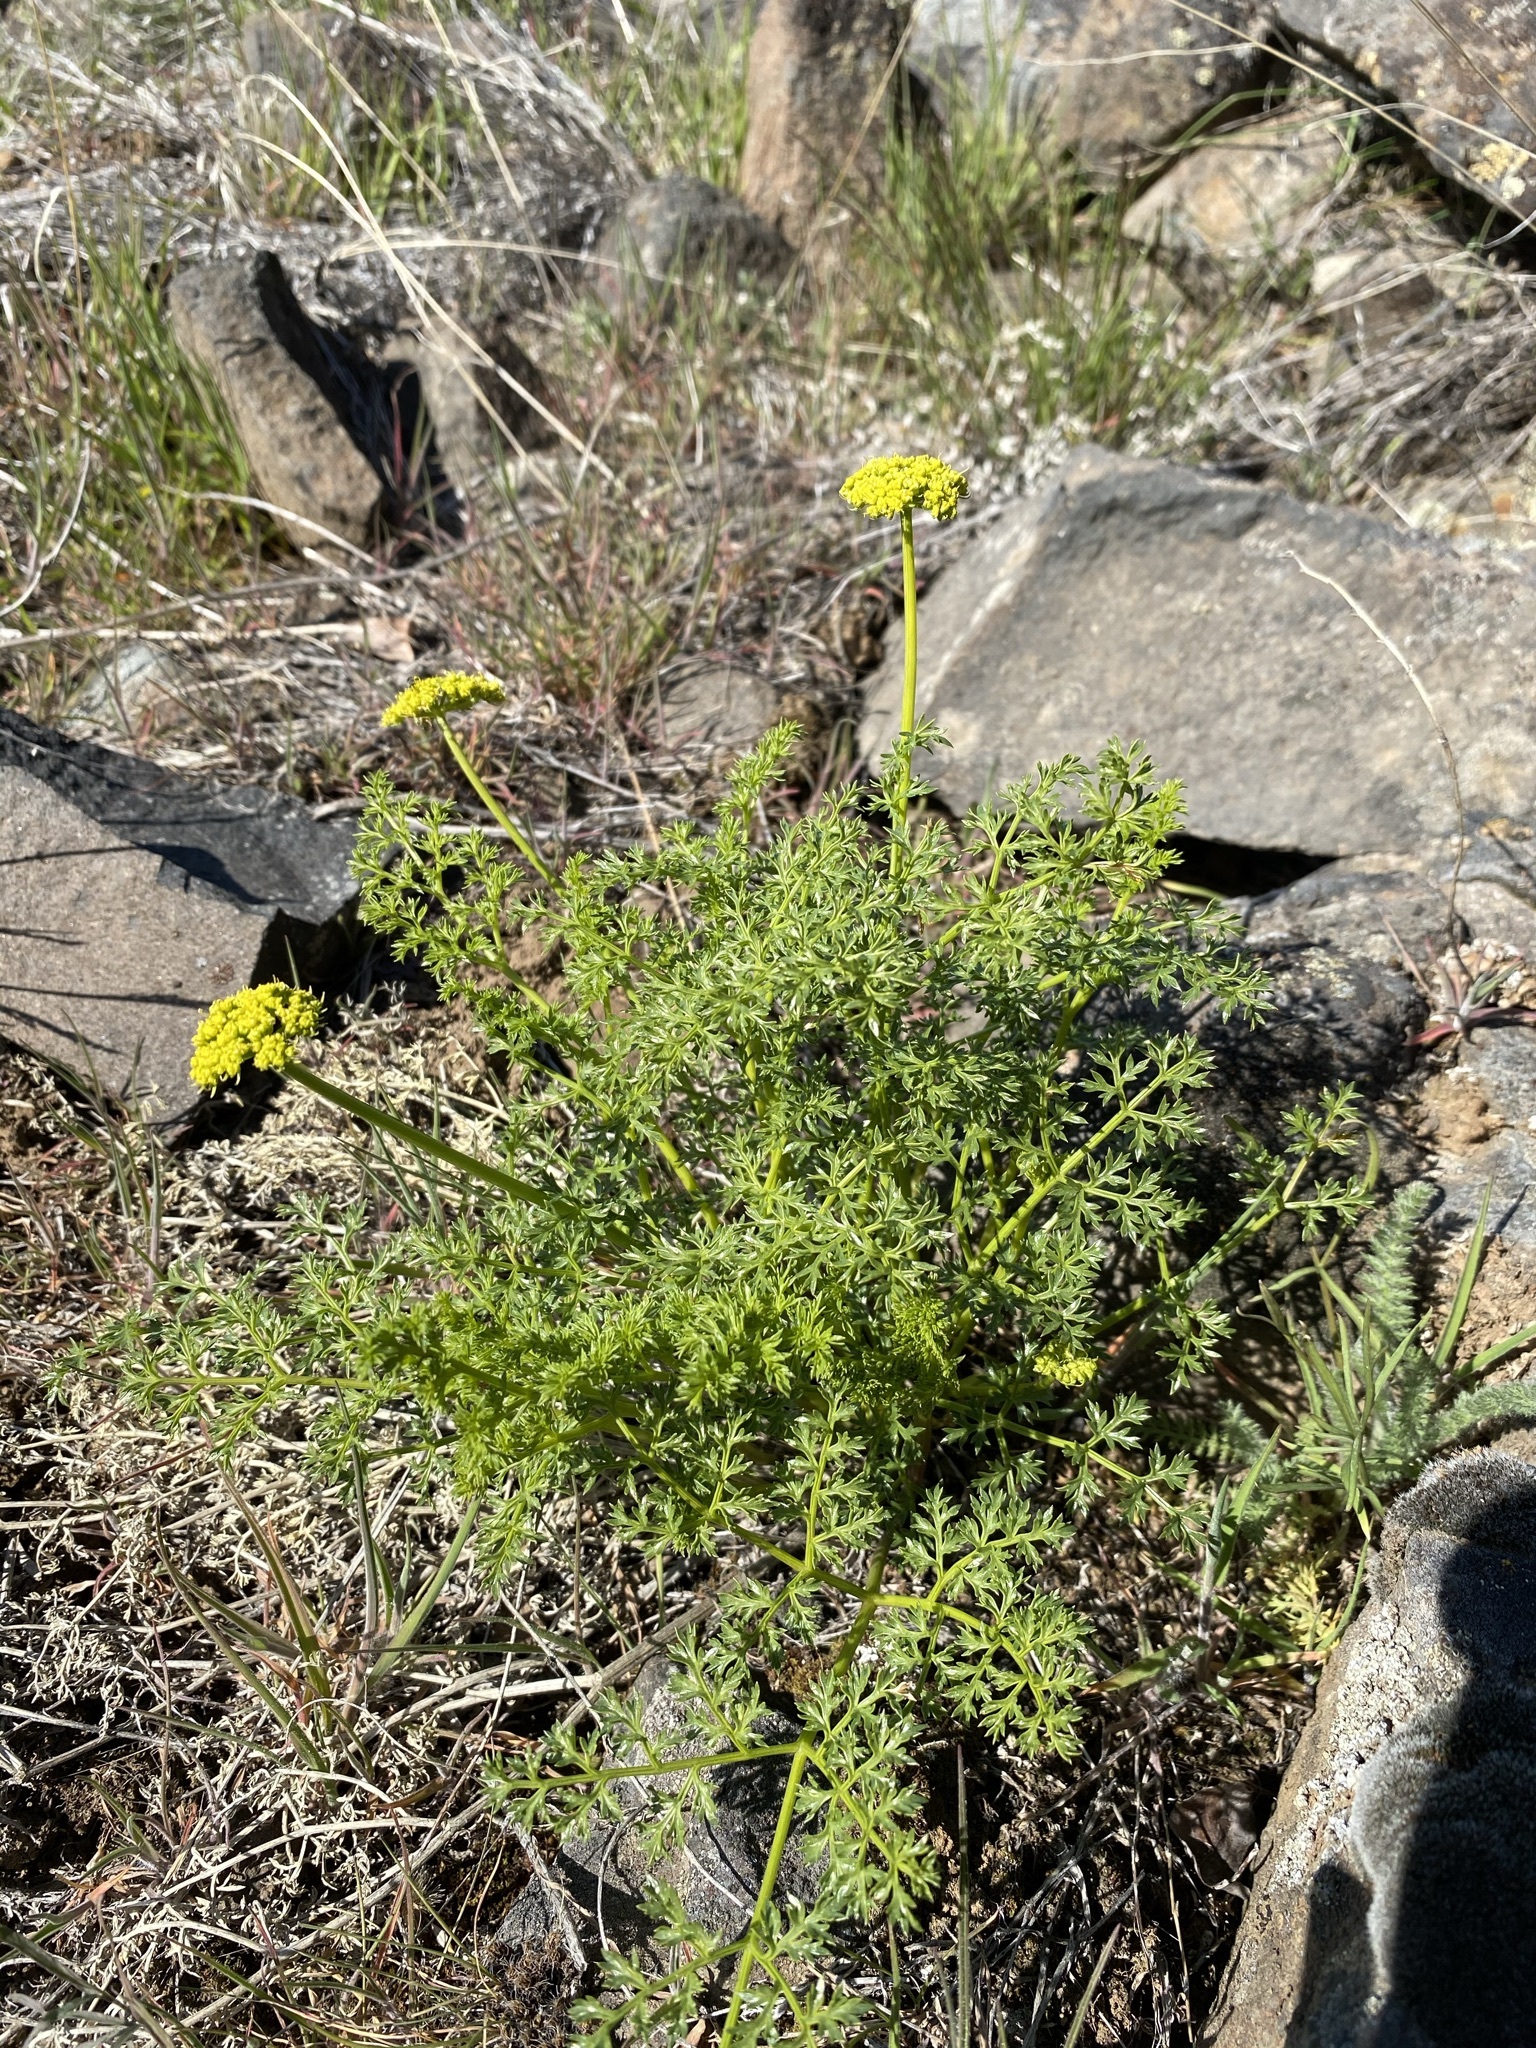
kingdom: Plantae
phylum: Tracheophyta
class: Magnoliopsida
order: Apiales
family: Apiaceae
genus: Pteryxia
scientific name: Pteryxia terebinthina
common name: Turpentine wavewing
